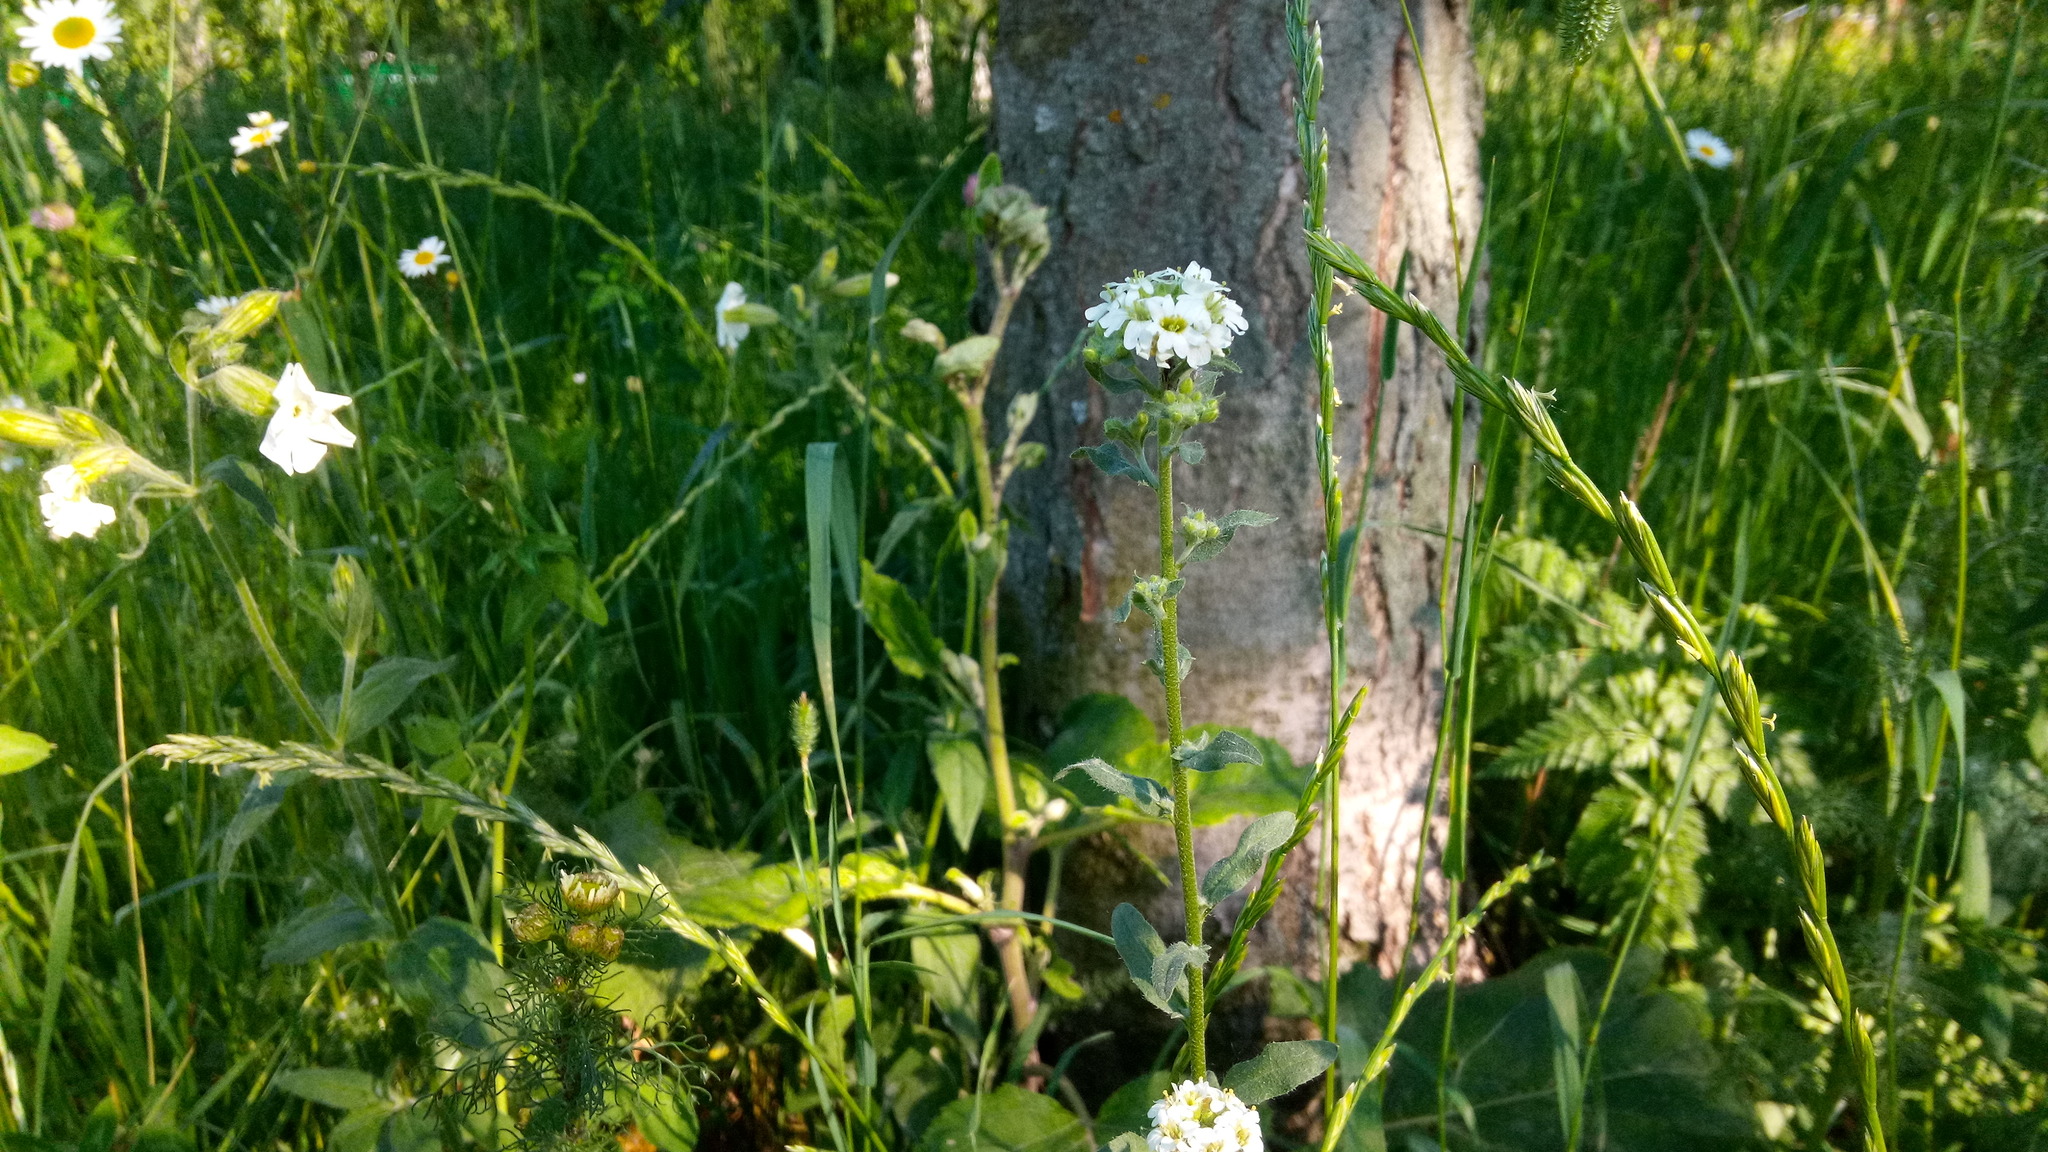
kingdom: Plantae
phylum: Tracheophyta
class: Magnoliopsida
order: Brassicales
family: Brassicaceae
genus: Berteroa
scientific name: Berteroa incana
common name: Hoary alison
